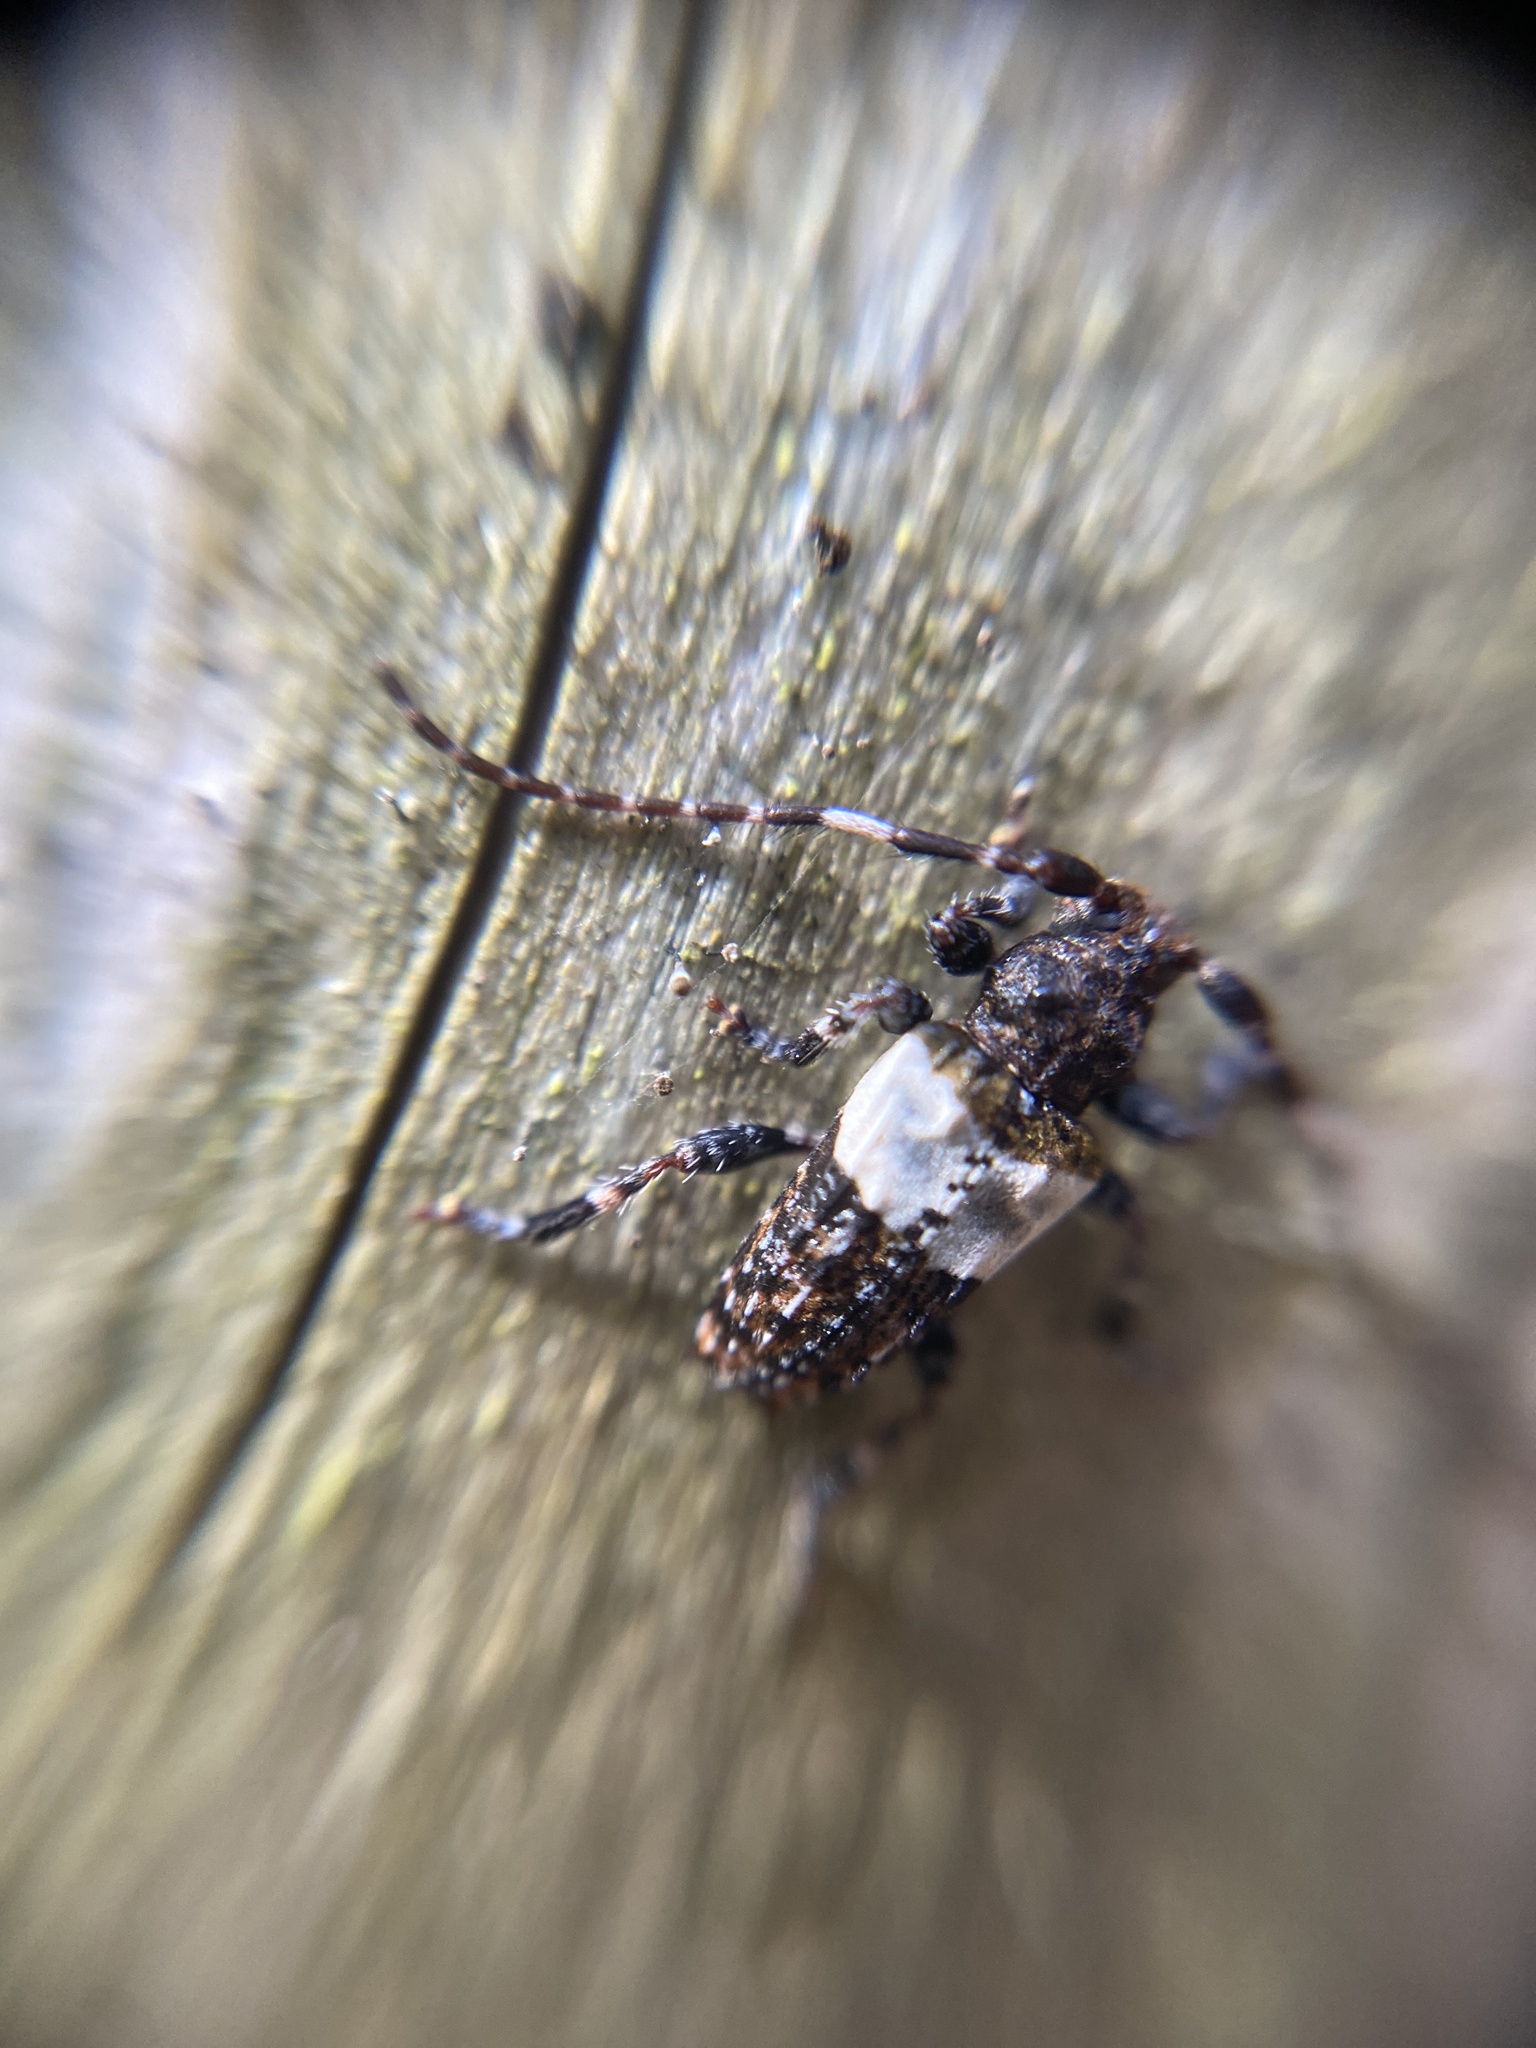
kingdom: Animalia
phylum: Arthropoda
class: Insecta
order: Coleoptera
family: Cerambycidae
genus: Pogonocherus
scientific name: Pogonocherus hispidulus
